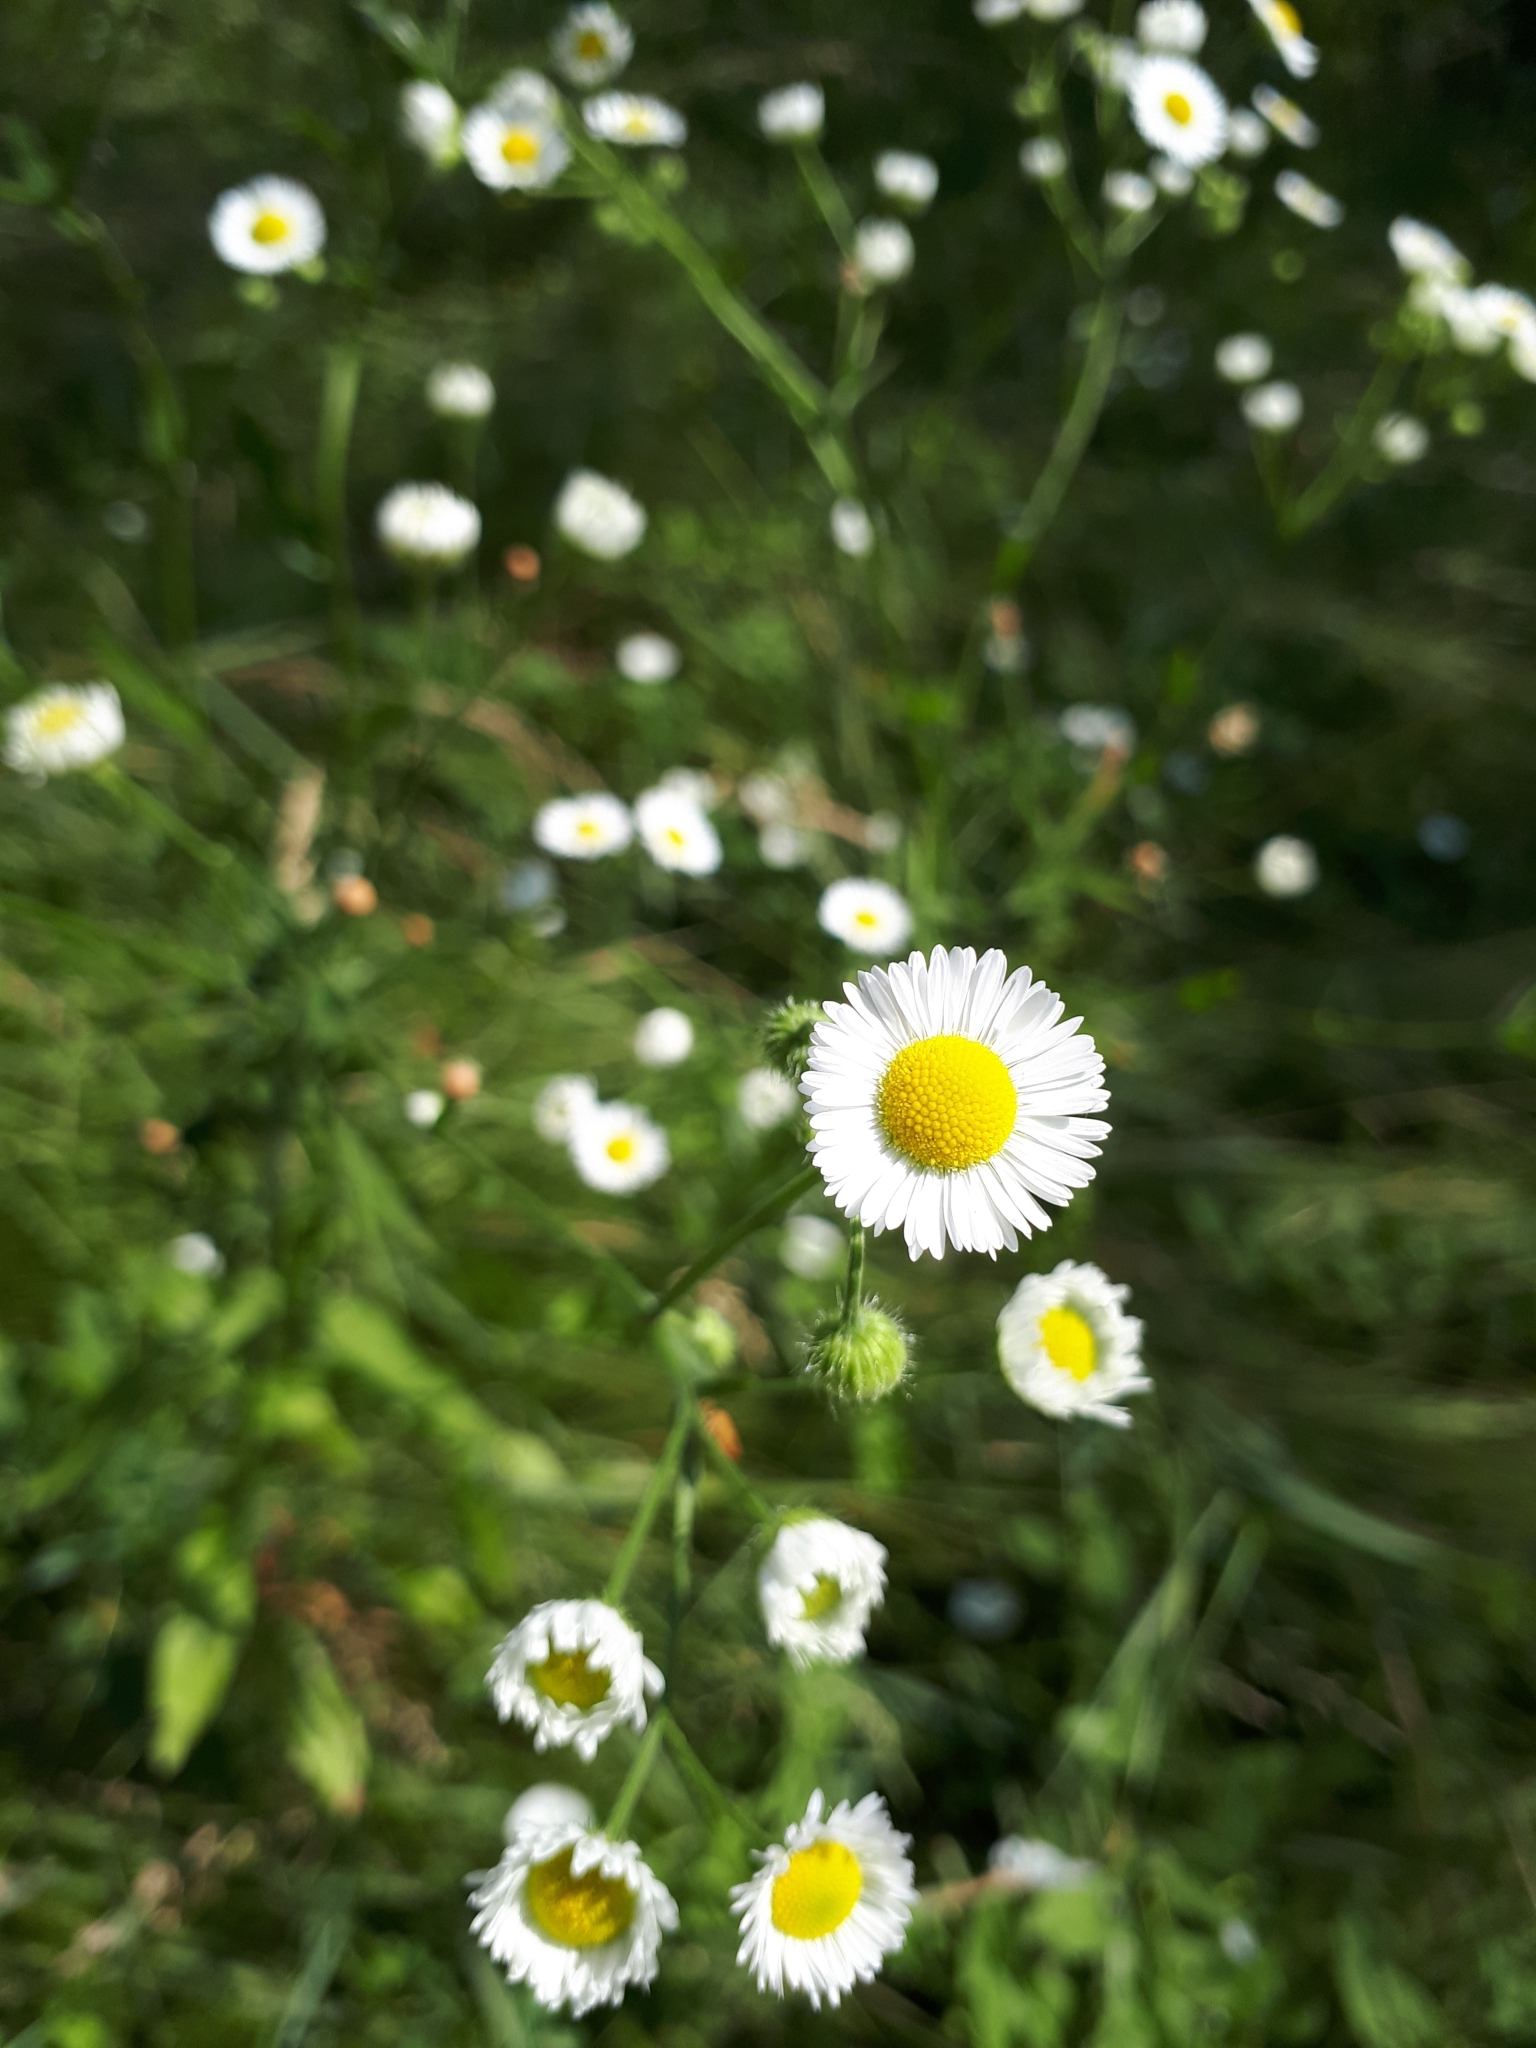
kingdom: Plantae
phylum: Tracheophyta
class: Magnoliopsida
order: Asterales
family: Asteraceae
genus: Erigeron
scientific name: Erigeron annuus
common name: Tall fleabane
